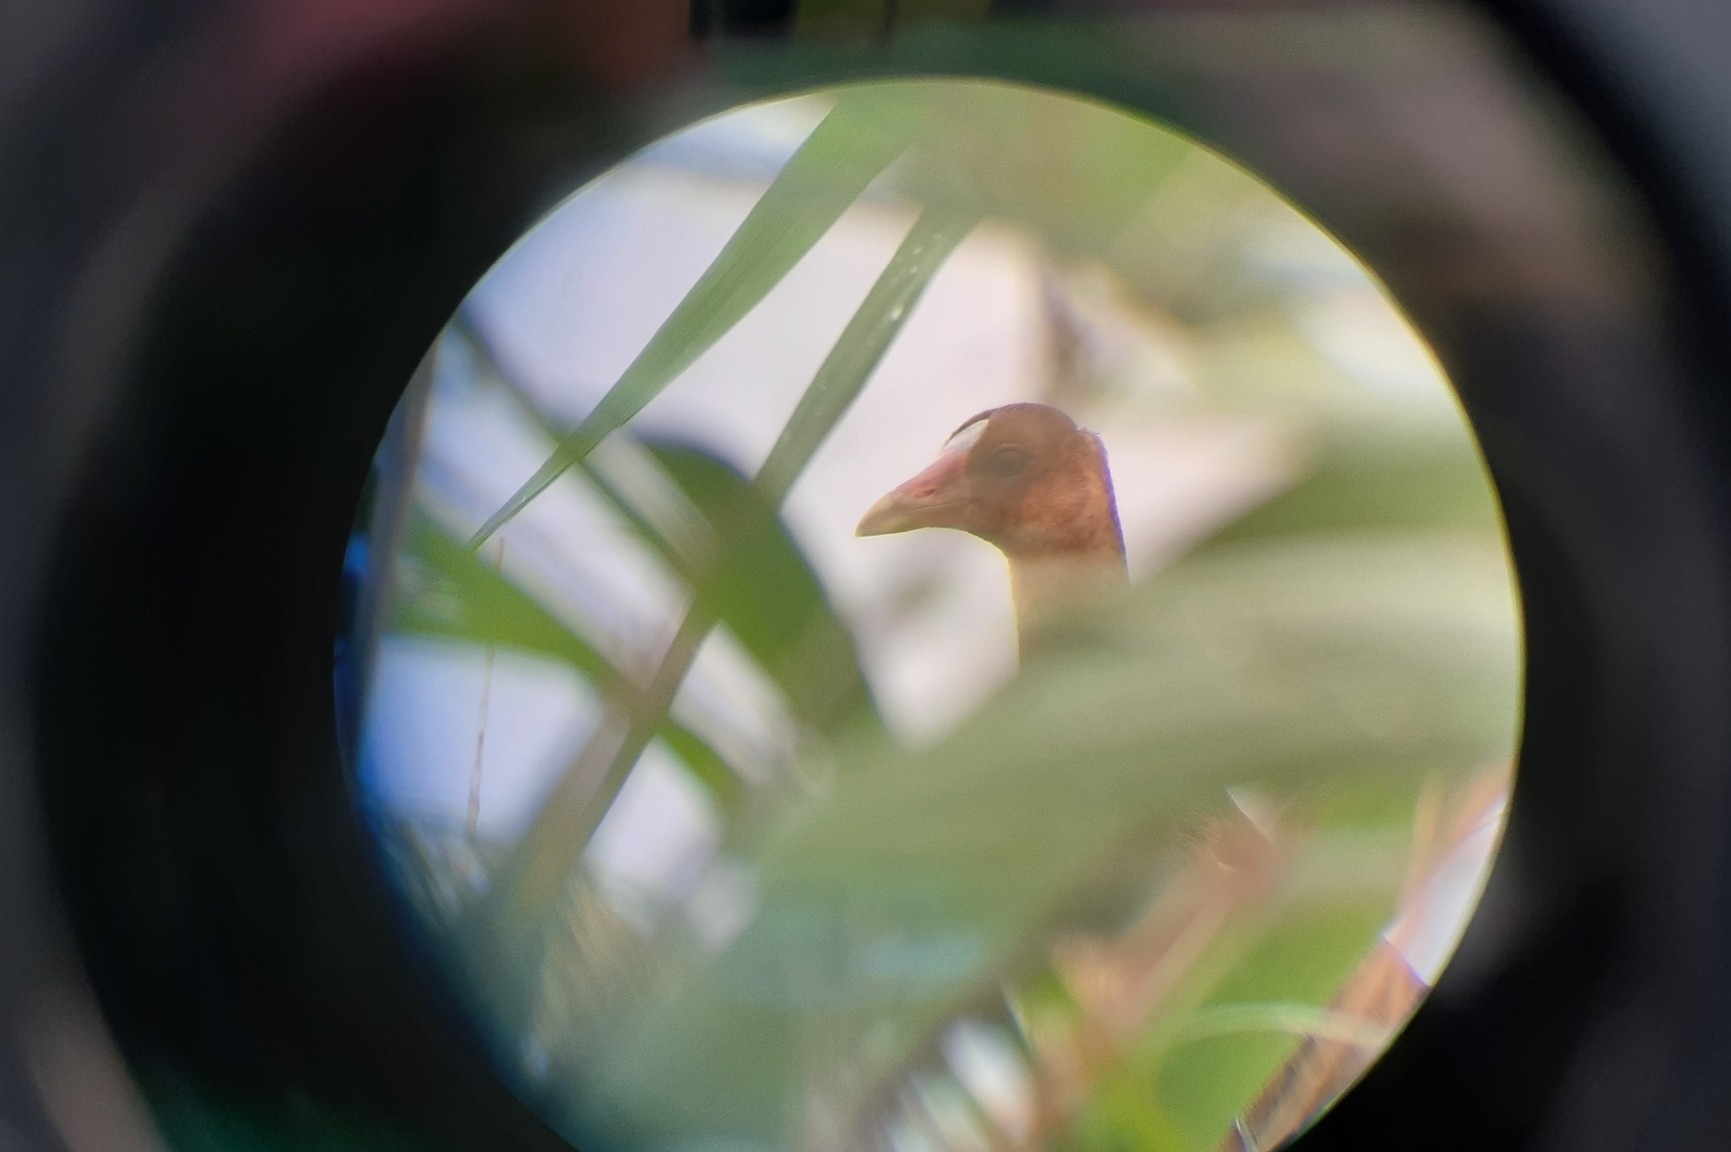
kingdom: Animalia
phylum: Chordata
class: Aves
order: Gruiformes
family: Rallidae
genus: Porphyrio
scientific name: Porphyrio martinica
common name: Purple gallinule
